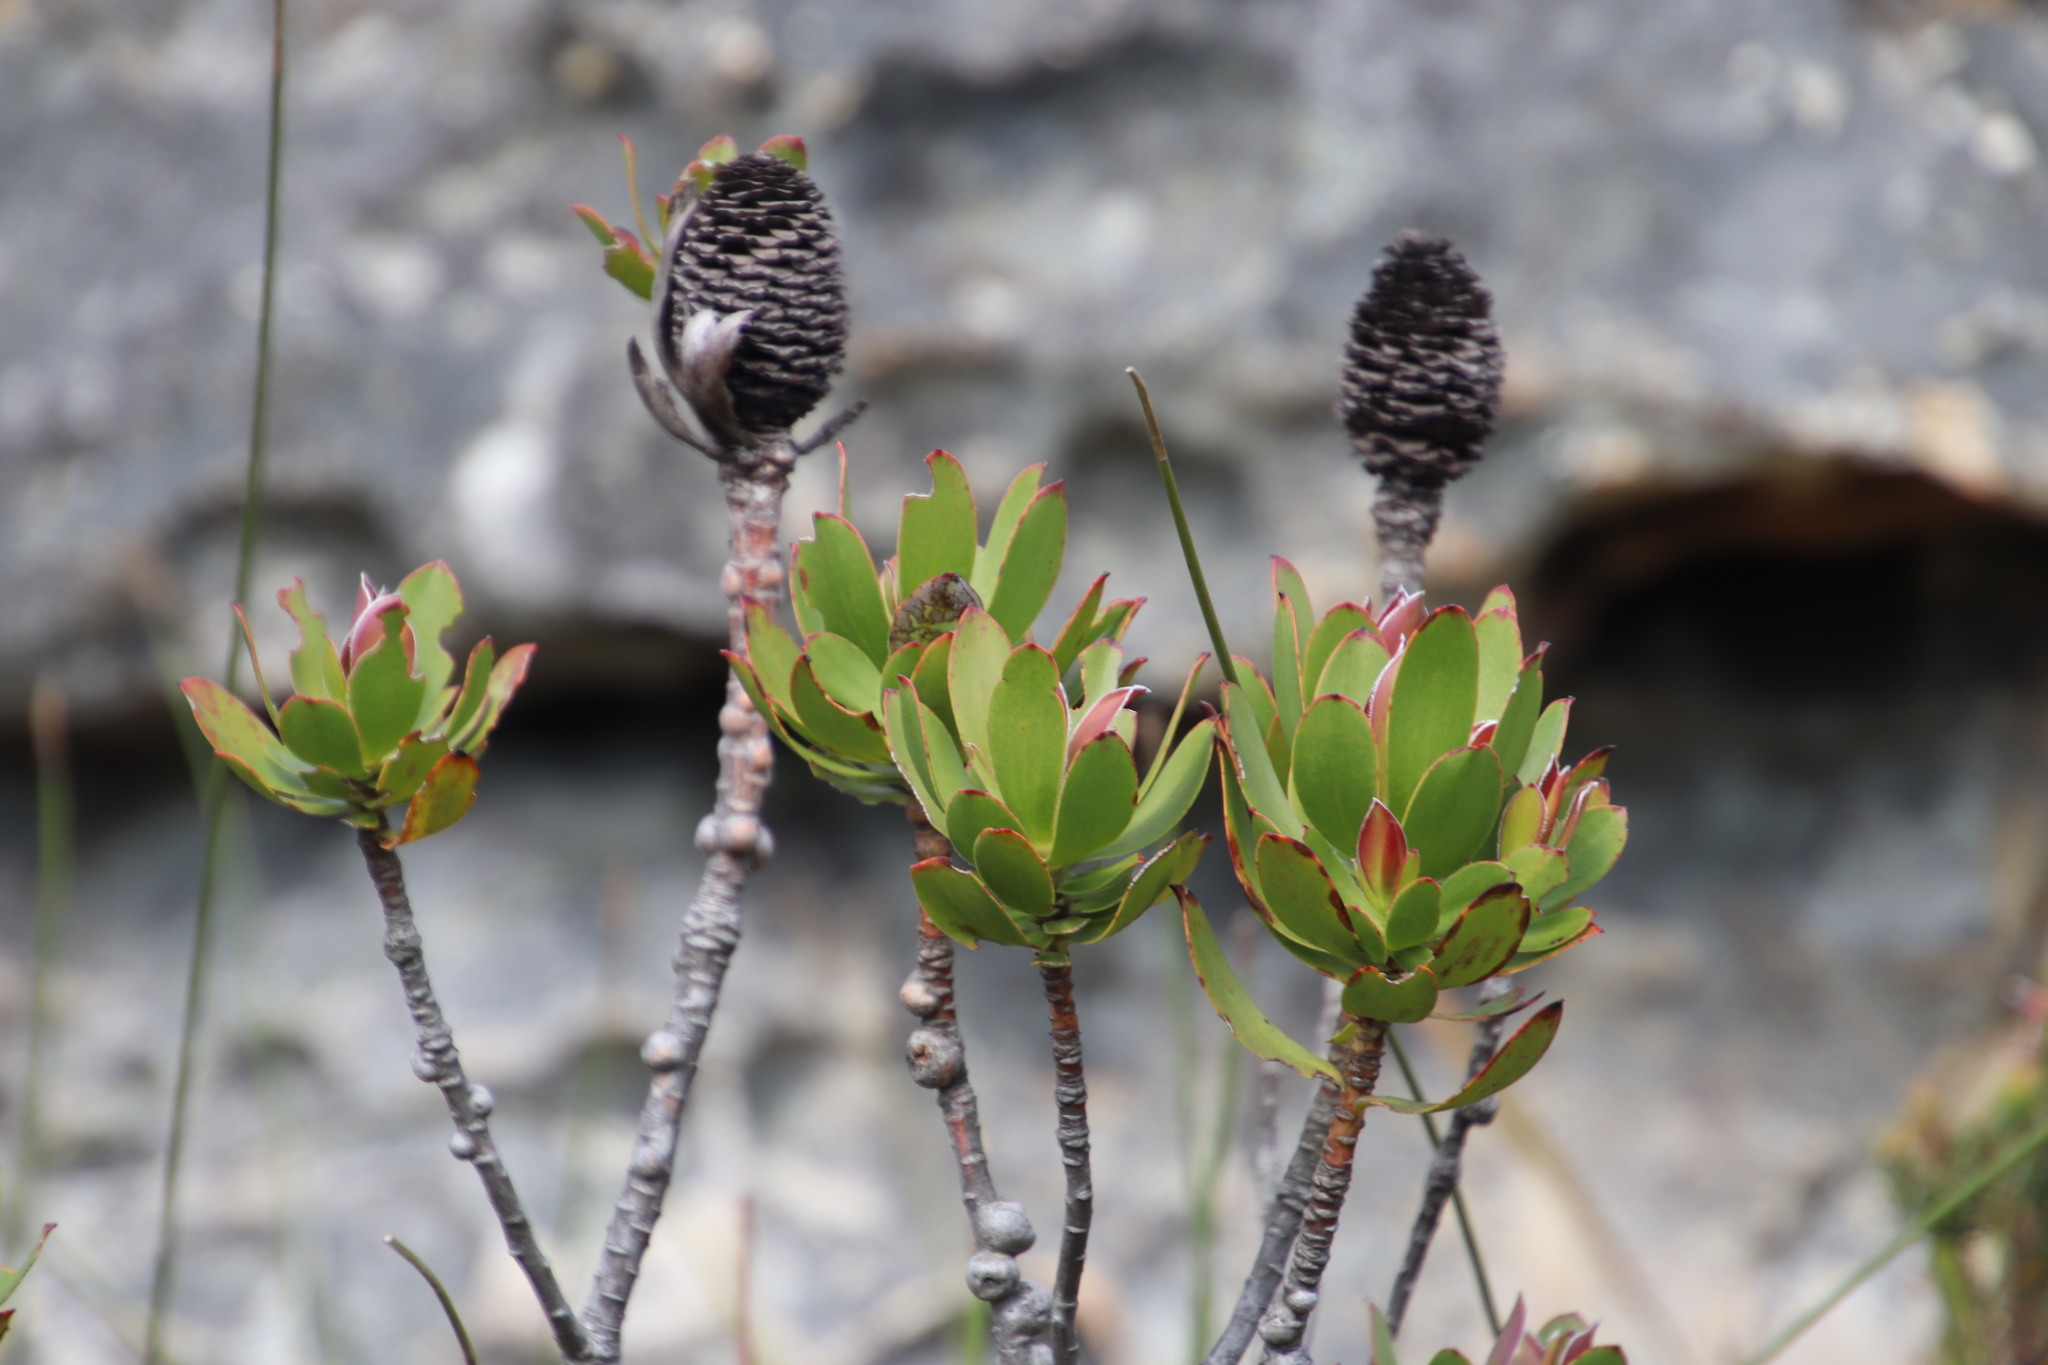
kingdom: Plantae
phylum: Tracheophyta
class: Magnoliopsida
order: Proteales
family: Proteaceae
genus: Leucadendron
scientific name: Leucadendron strobilinum
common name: Mountain rose
